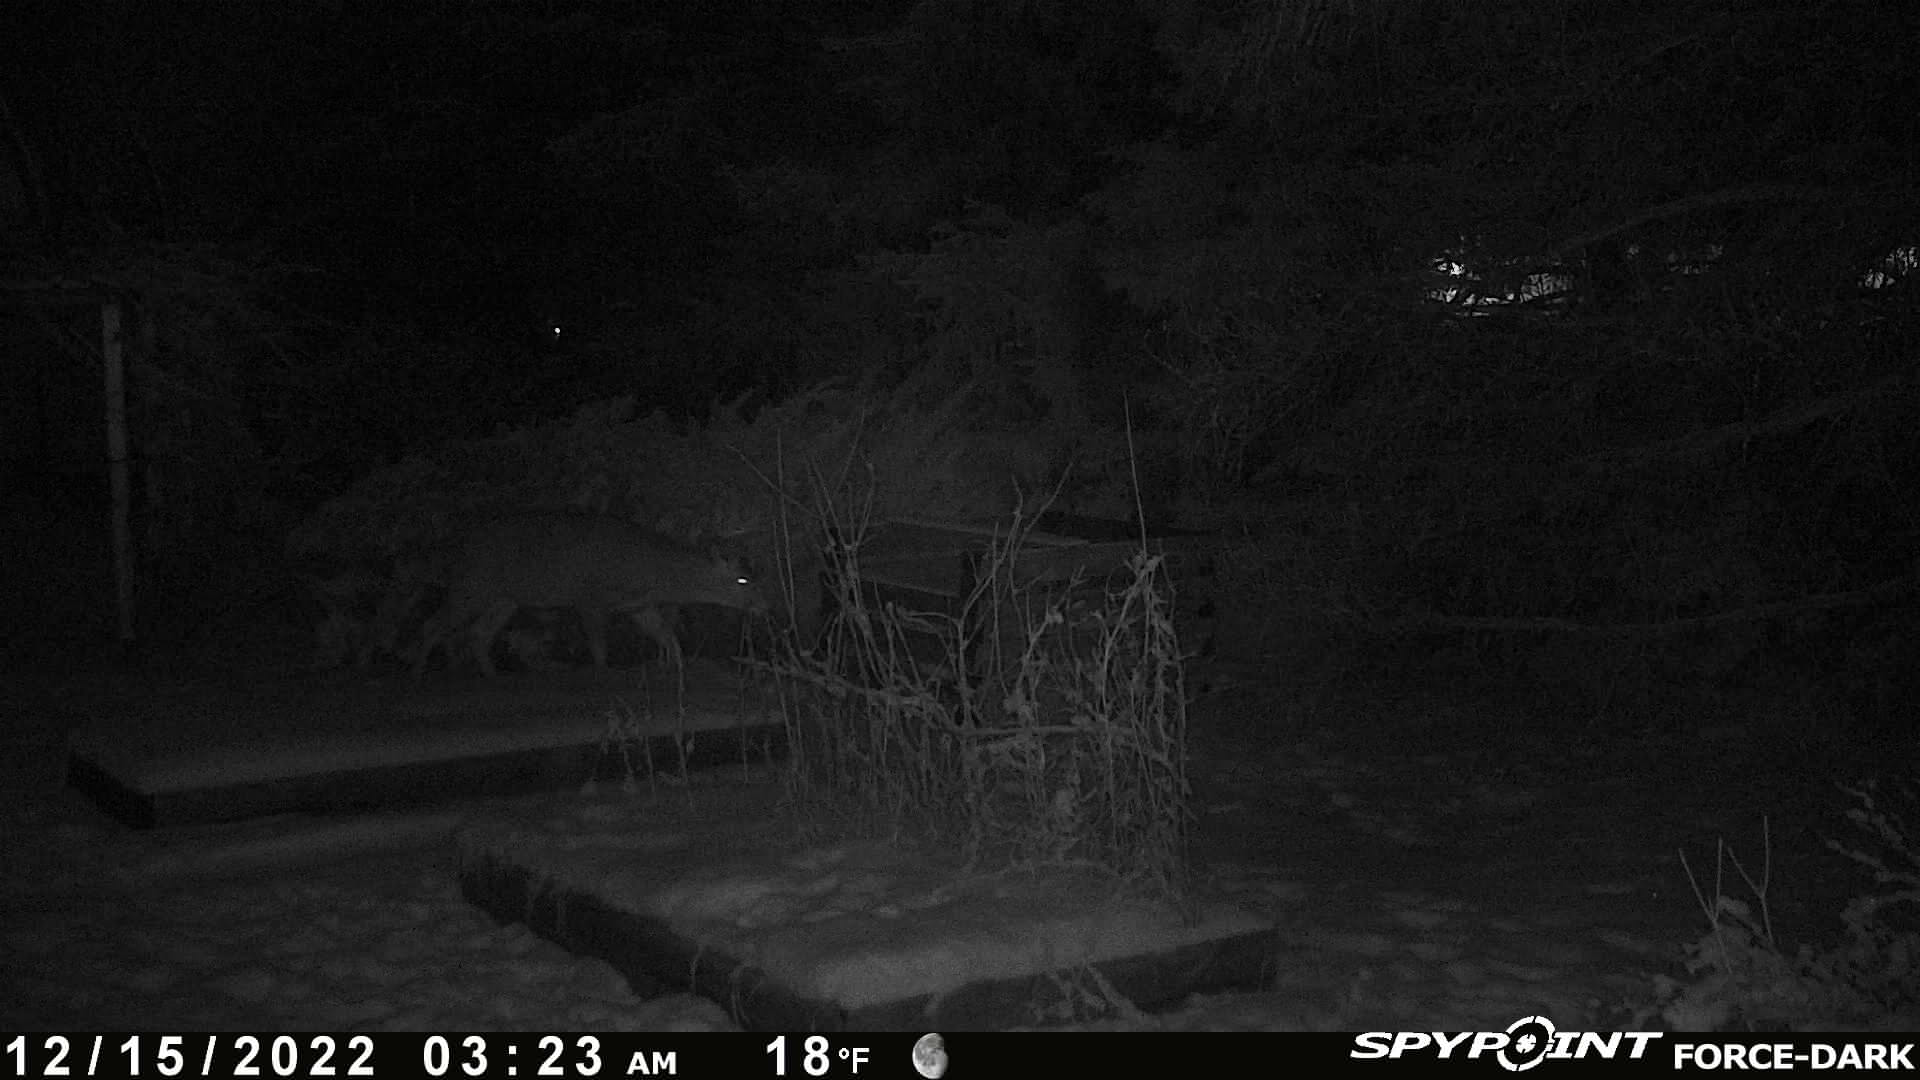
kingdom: Animalia
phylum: Chordata
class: Mammalia
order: Artiodactyla
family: Cervidae
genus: Odocoileus
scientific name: Odocoileus virginianus
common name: White-tailed deer
